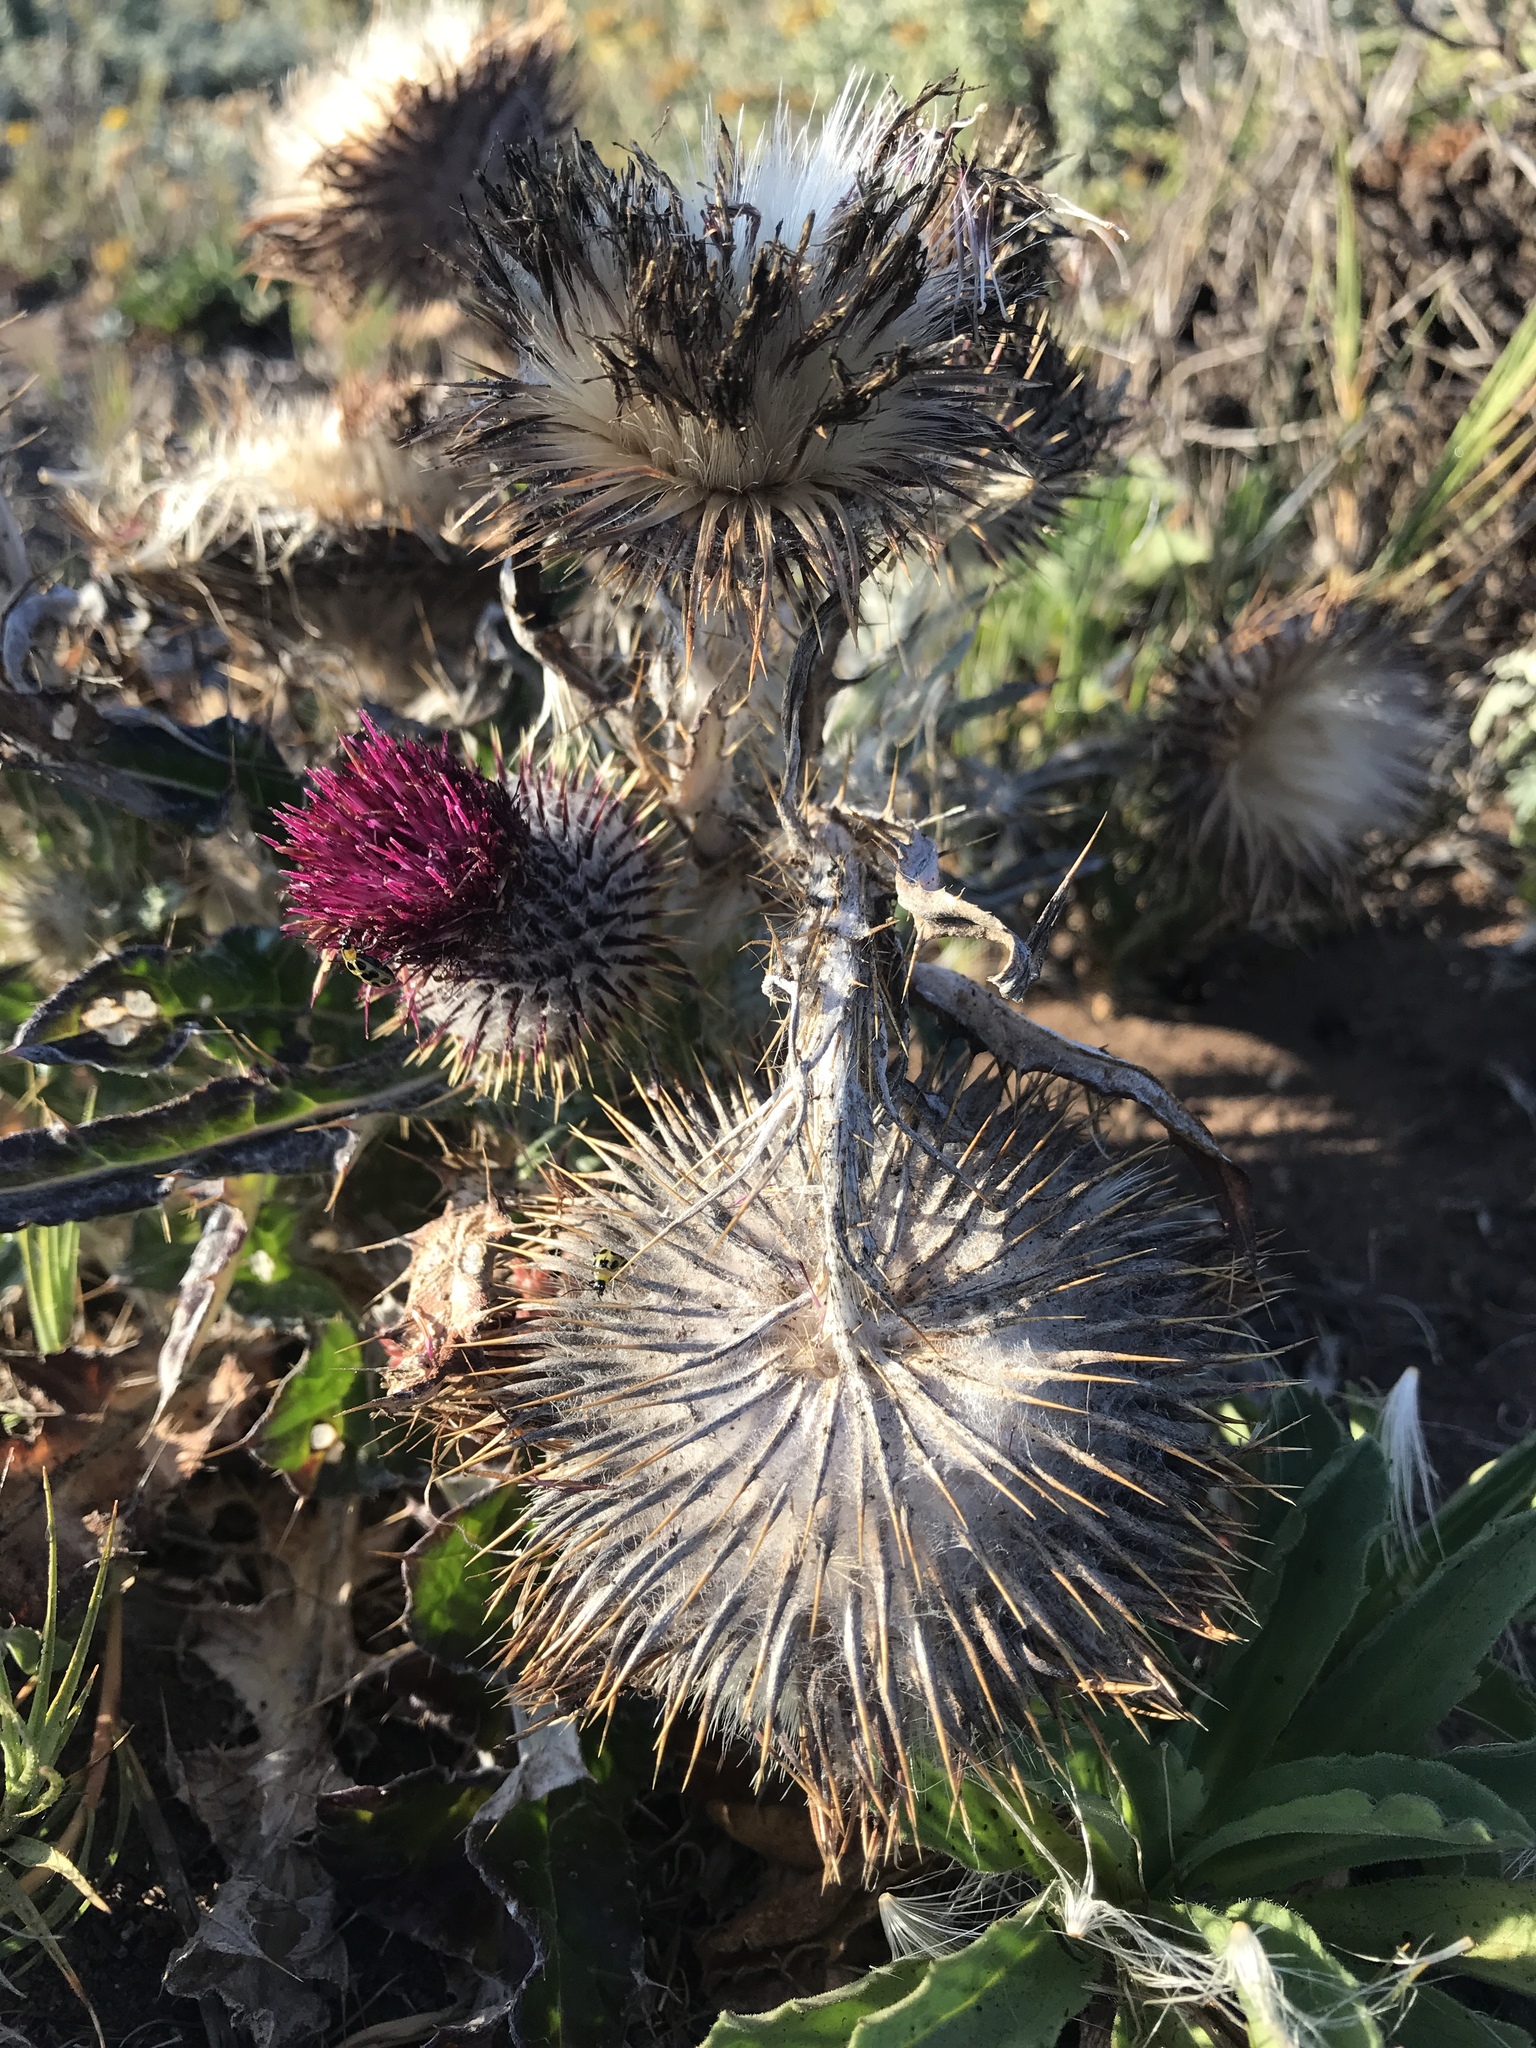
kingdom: Plantae
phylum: Tracheophyta
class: Magnoliopsida
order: Asterales
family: Asteraceae
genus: Cirsium
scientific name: Cirsium occidentale
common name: Western thistle
